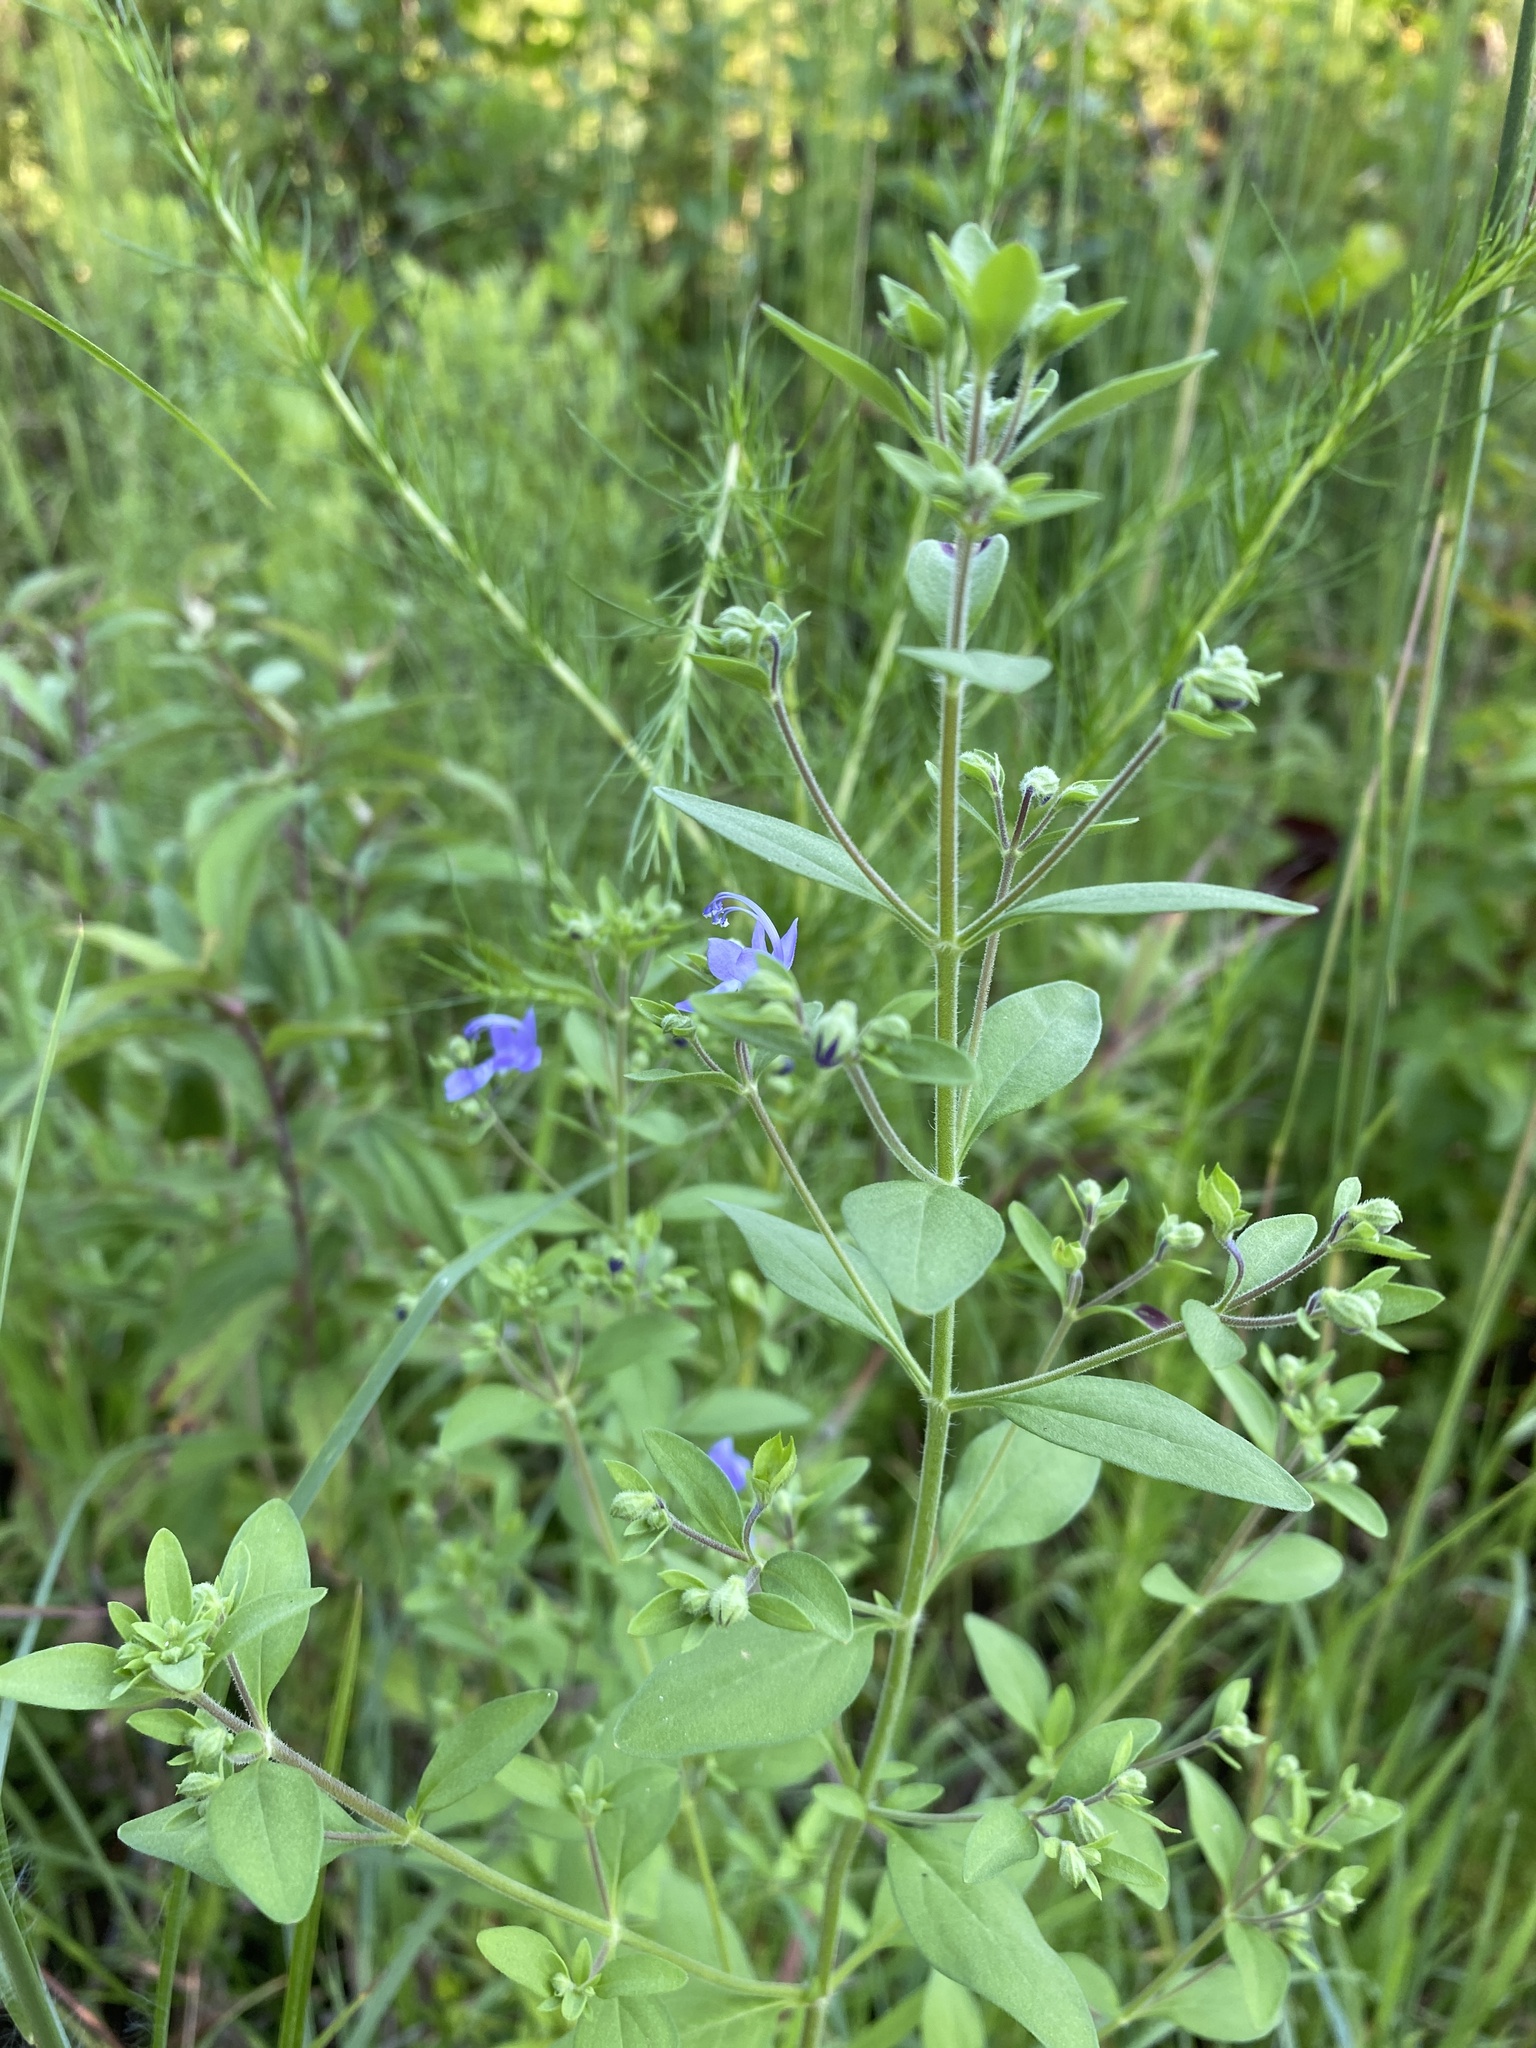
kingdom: Plantae
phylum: Tracheophyta
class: Magnoliopsida
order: Lamiales
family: Lamiaceae
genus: Trichostema
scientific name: Trichostema dichotomum
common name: Bastard pennyroyal
